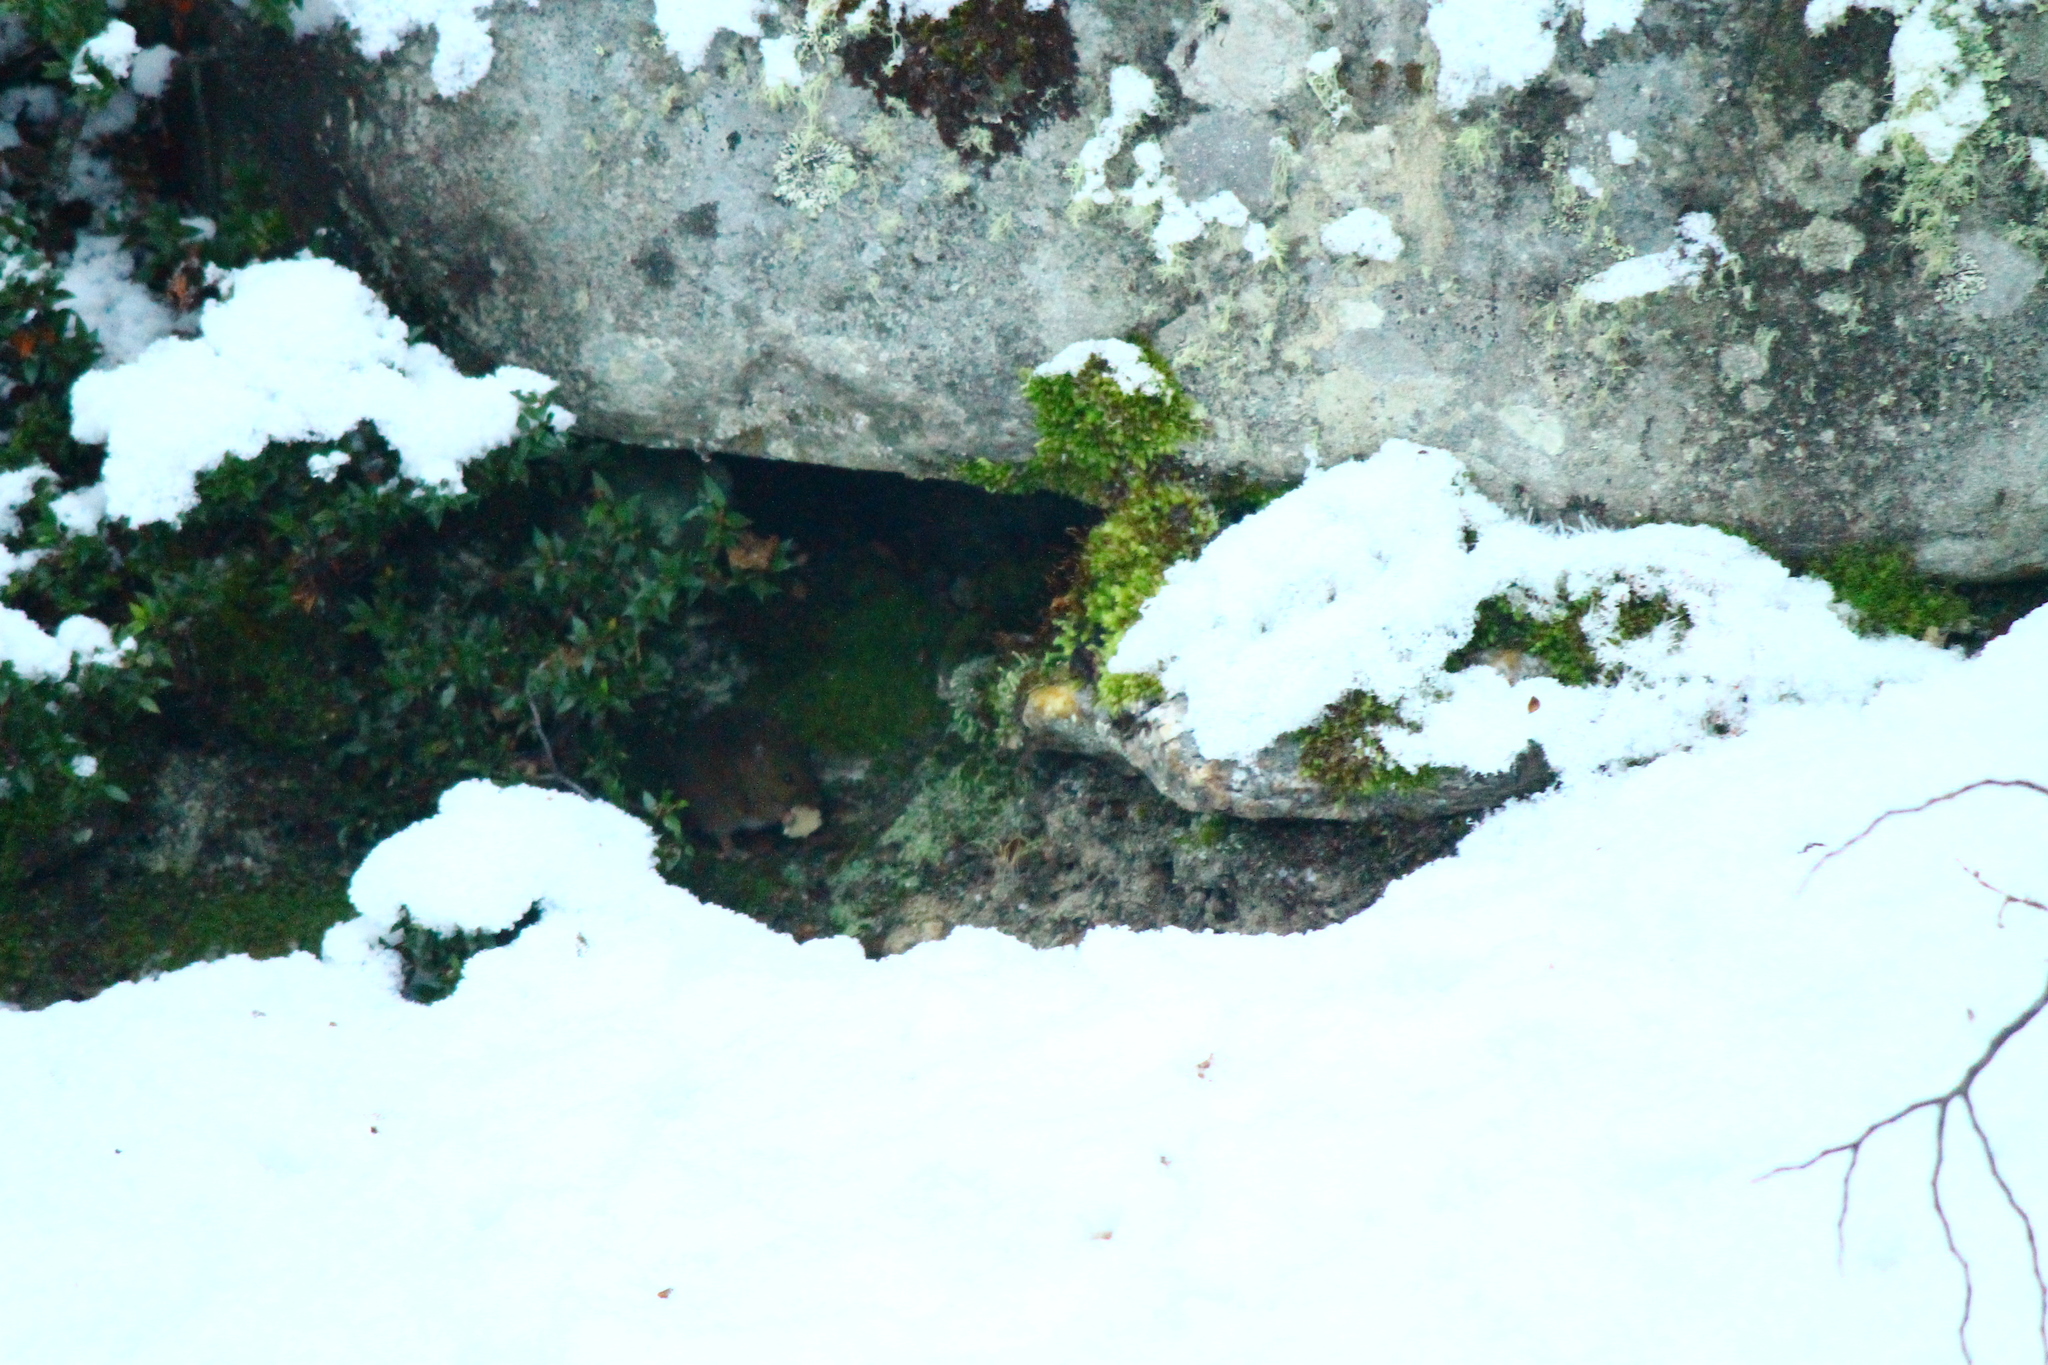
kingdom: Animalia
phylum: Chordata
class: Mammalia
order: Rodentia
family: Cricetidae
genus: Abrothrix
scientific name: Abrothrix olivaceus
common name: Olive-colored akodont
